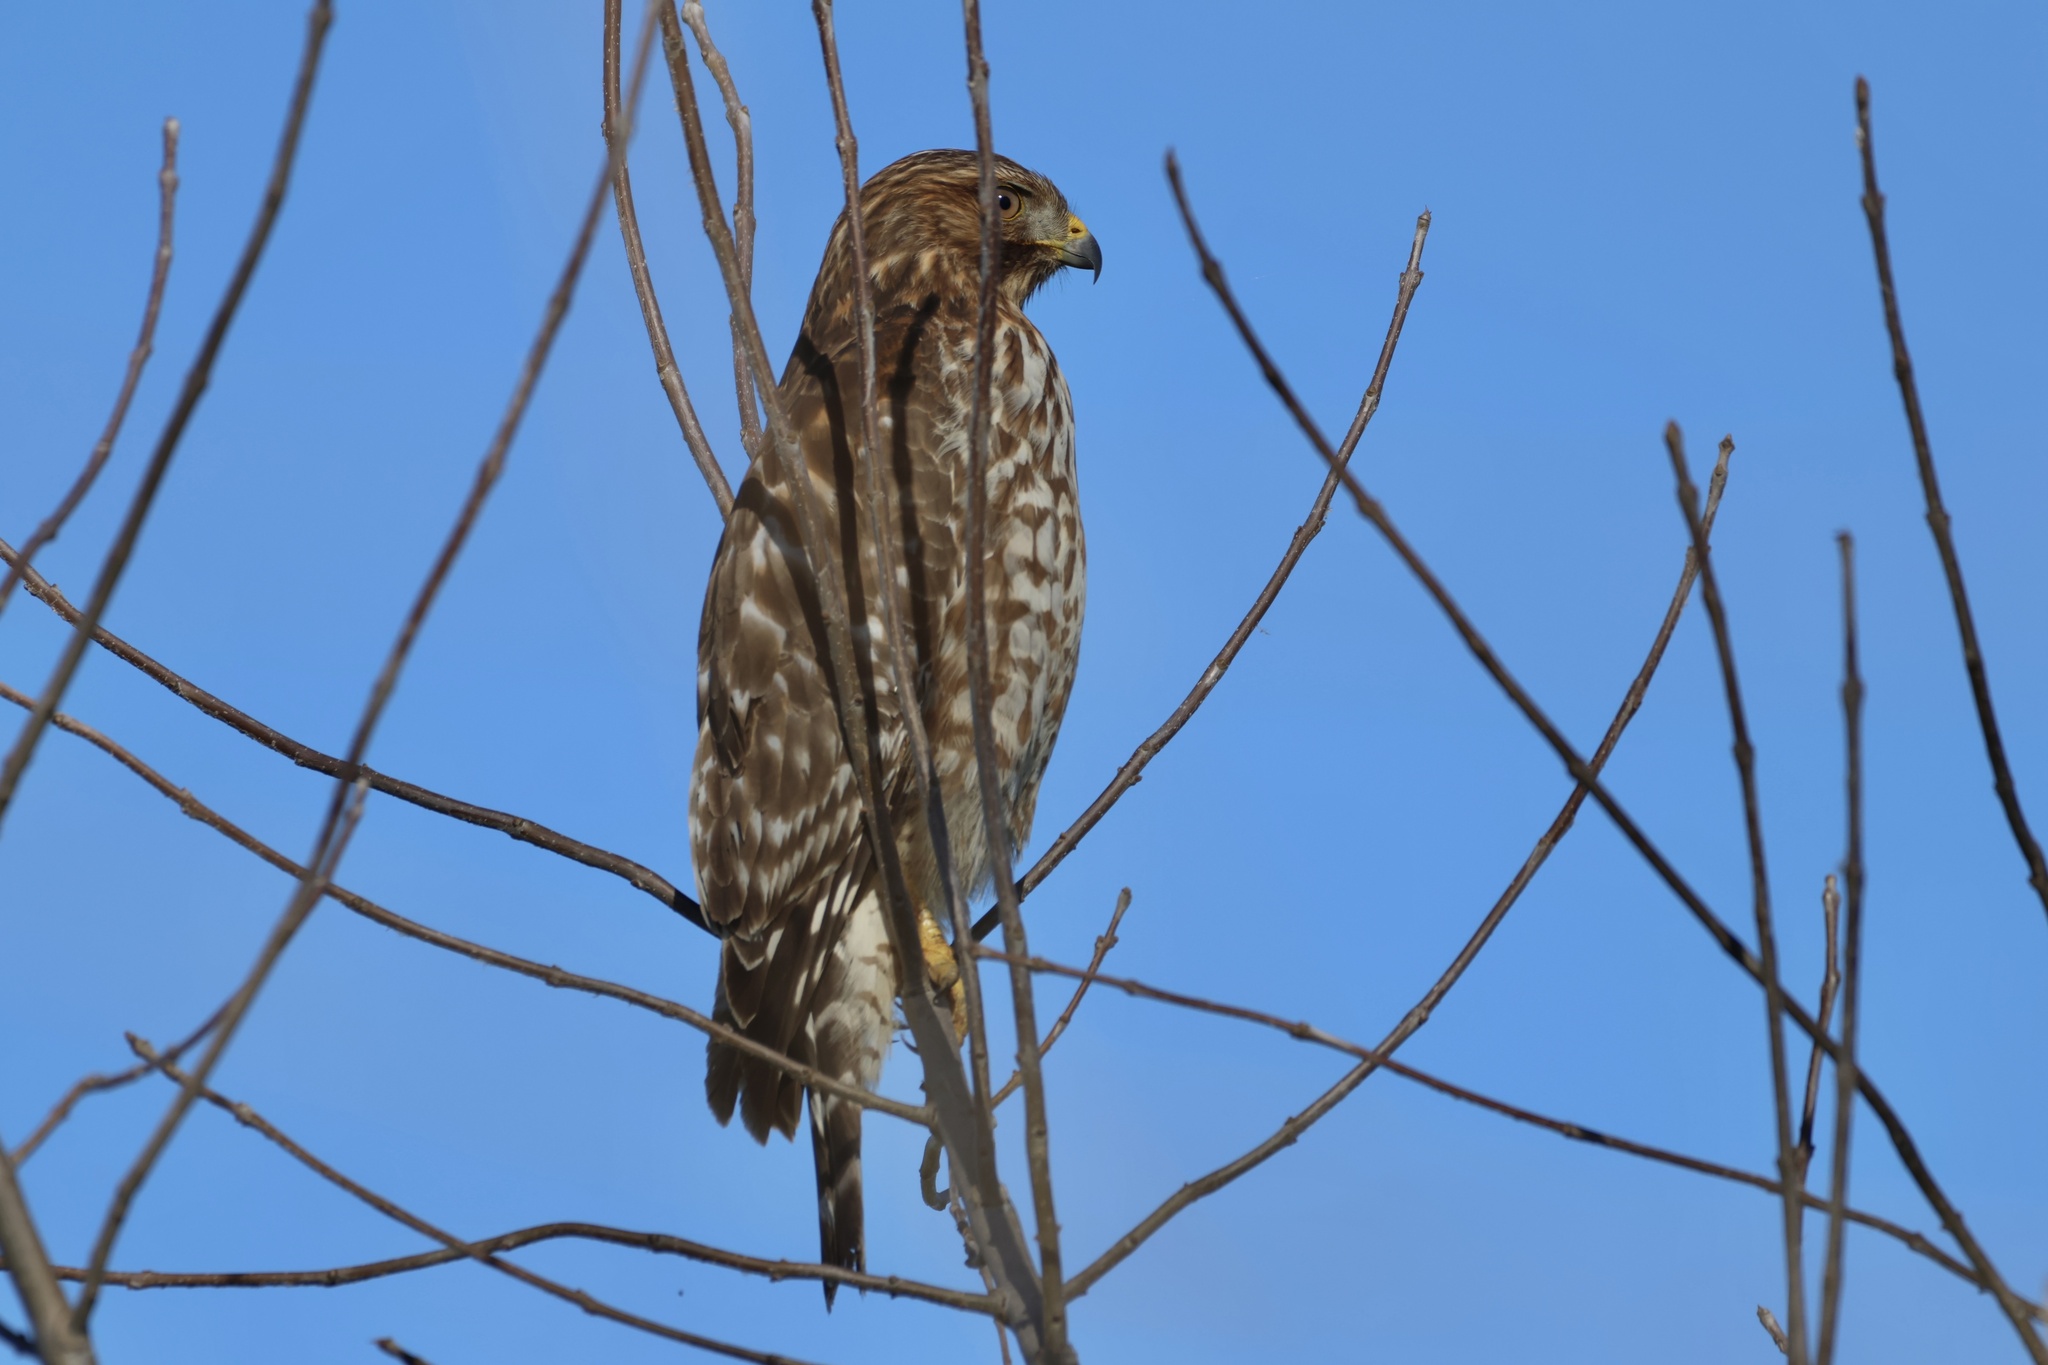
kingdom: Animalia
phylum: Chordata
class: Aves
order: Accipitriformes
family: Accipitridae
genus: Buteo
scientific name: Buteo lineatus
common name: Red-shouldered hawk
